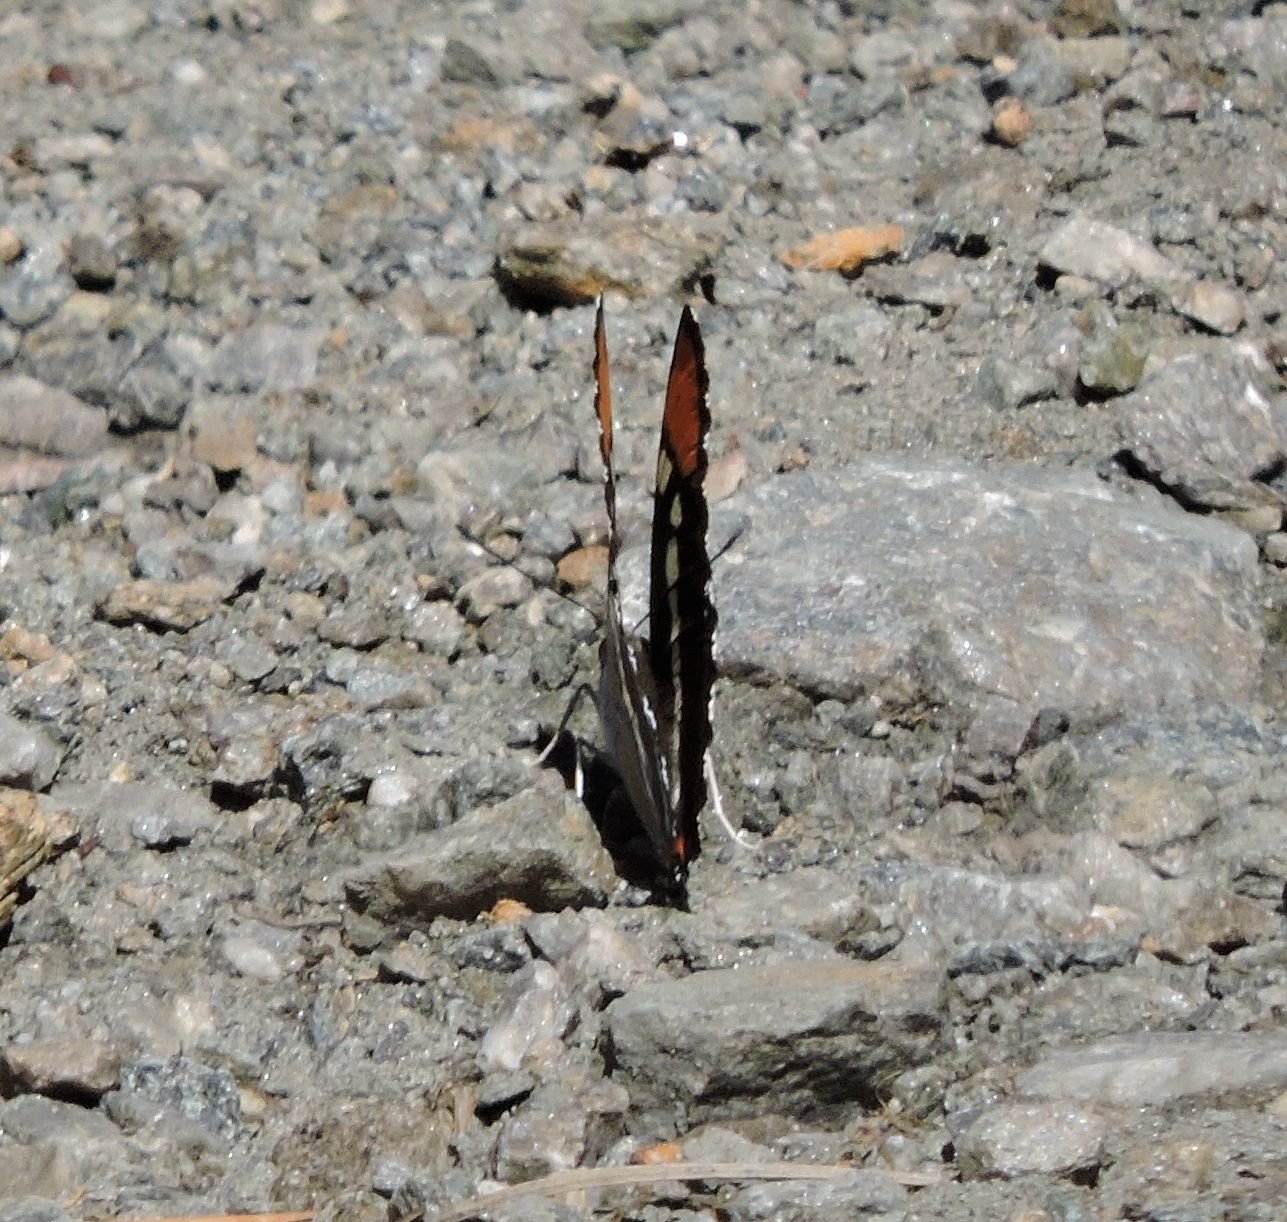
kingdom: Animalia
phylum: Arthropoda
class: Insecta
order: Lepidoptera
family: Nymphalidae
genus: Limenitis
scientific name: Limenitis bredowii
